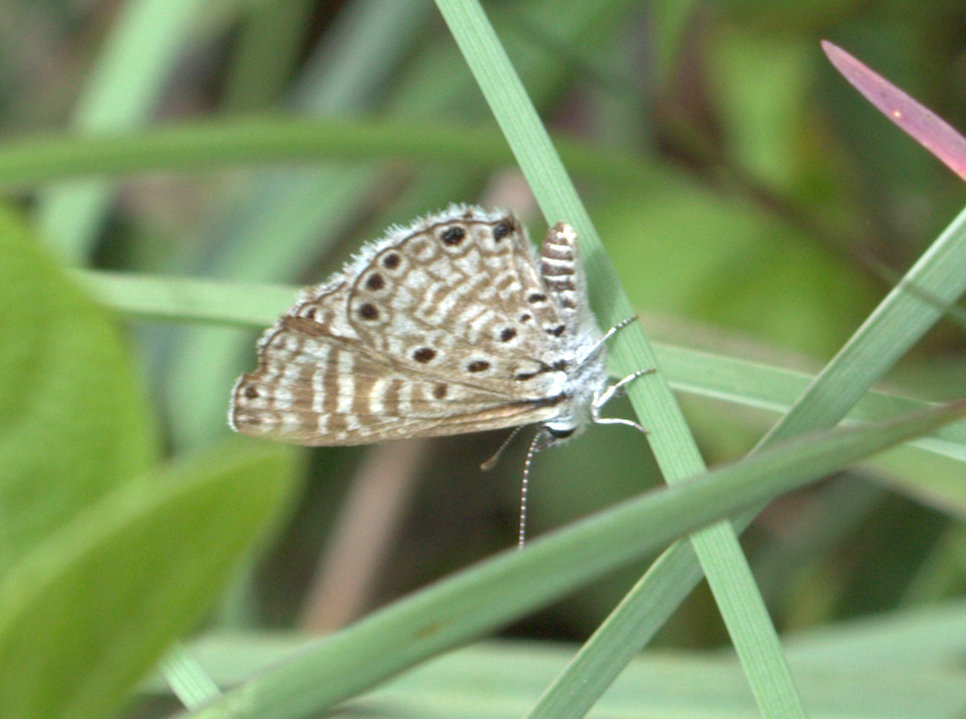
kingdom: Animalia
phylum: Arthropoda
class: Insecta
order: Lepidoptera
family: Lycaenidae
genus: Azanus
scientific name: Azanus jesous
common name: African babul blue
